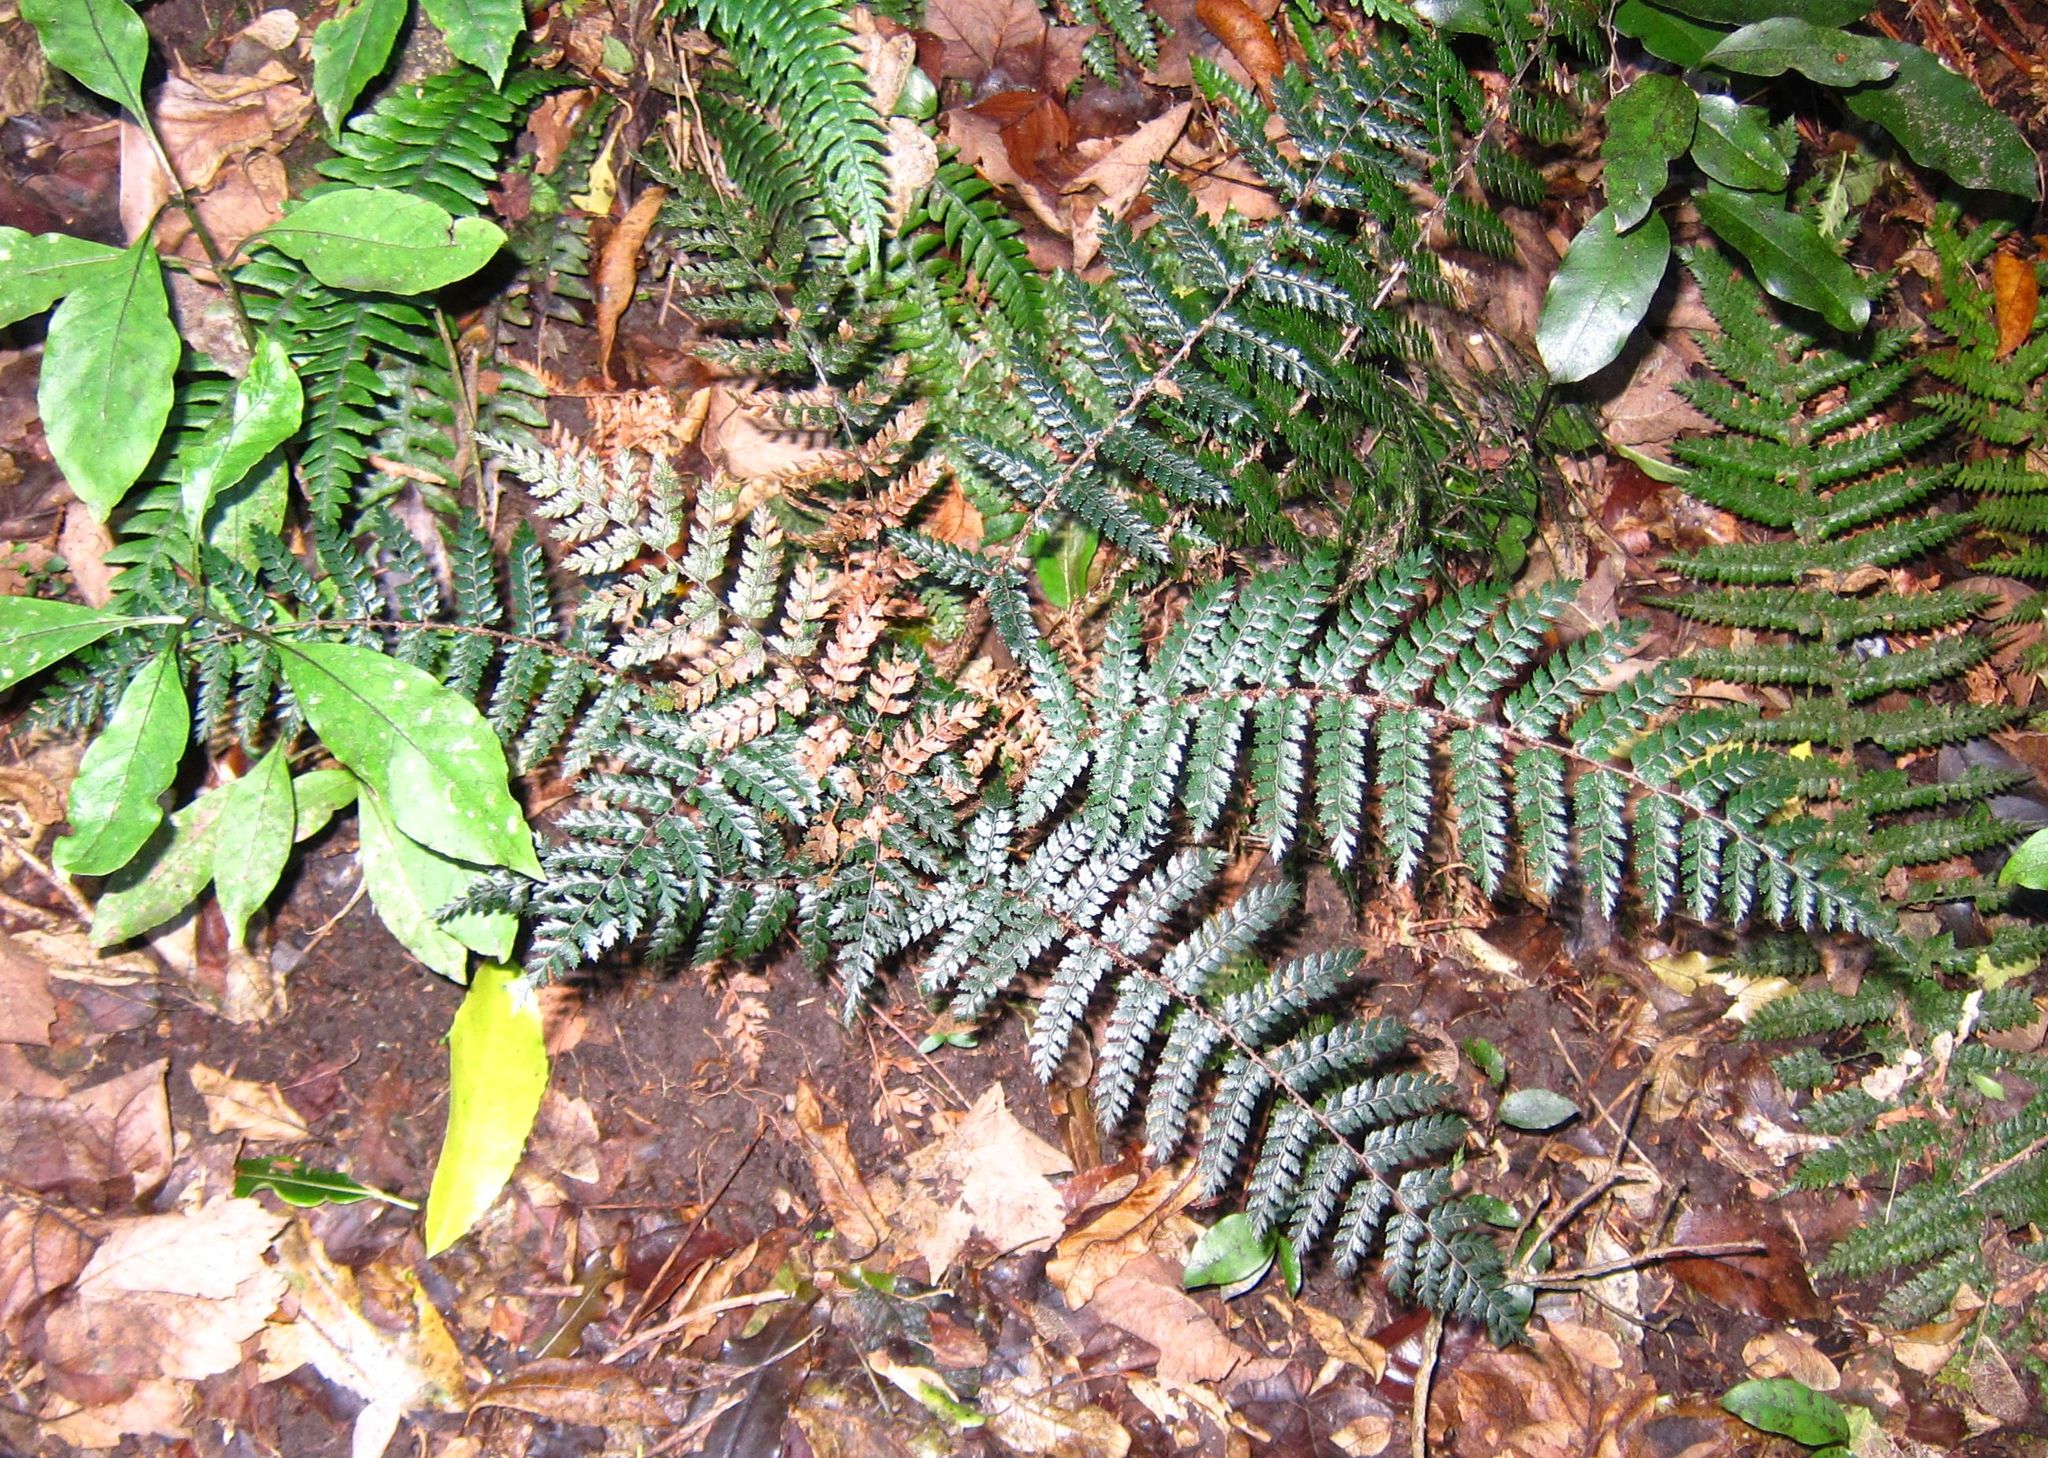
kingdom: Plantae
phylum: Tracheophyta
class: Polypodiopsida
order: Polypodiales
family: Dryopteridaceae
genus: Polystichum
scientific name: Polystichum vestitum
